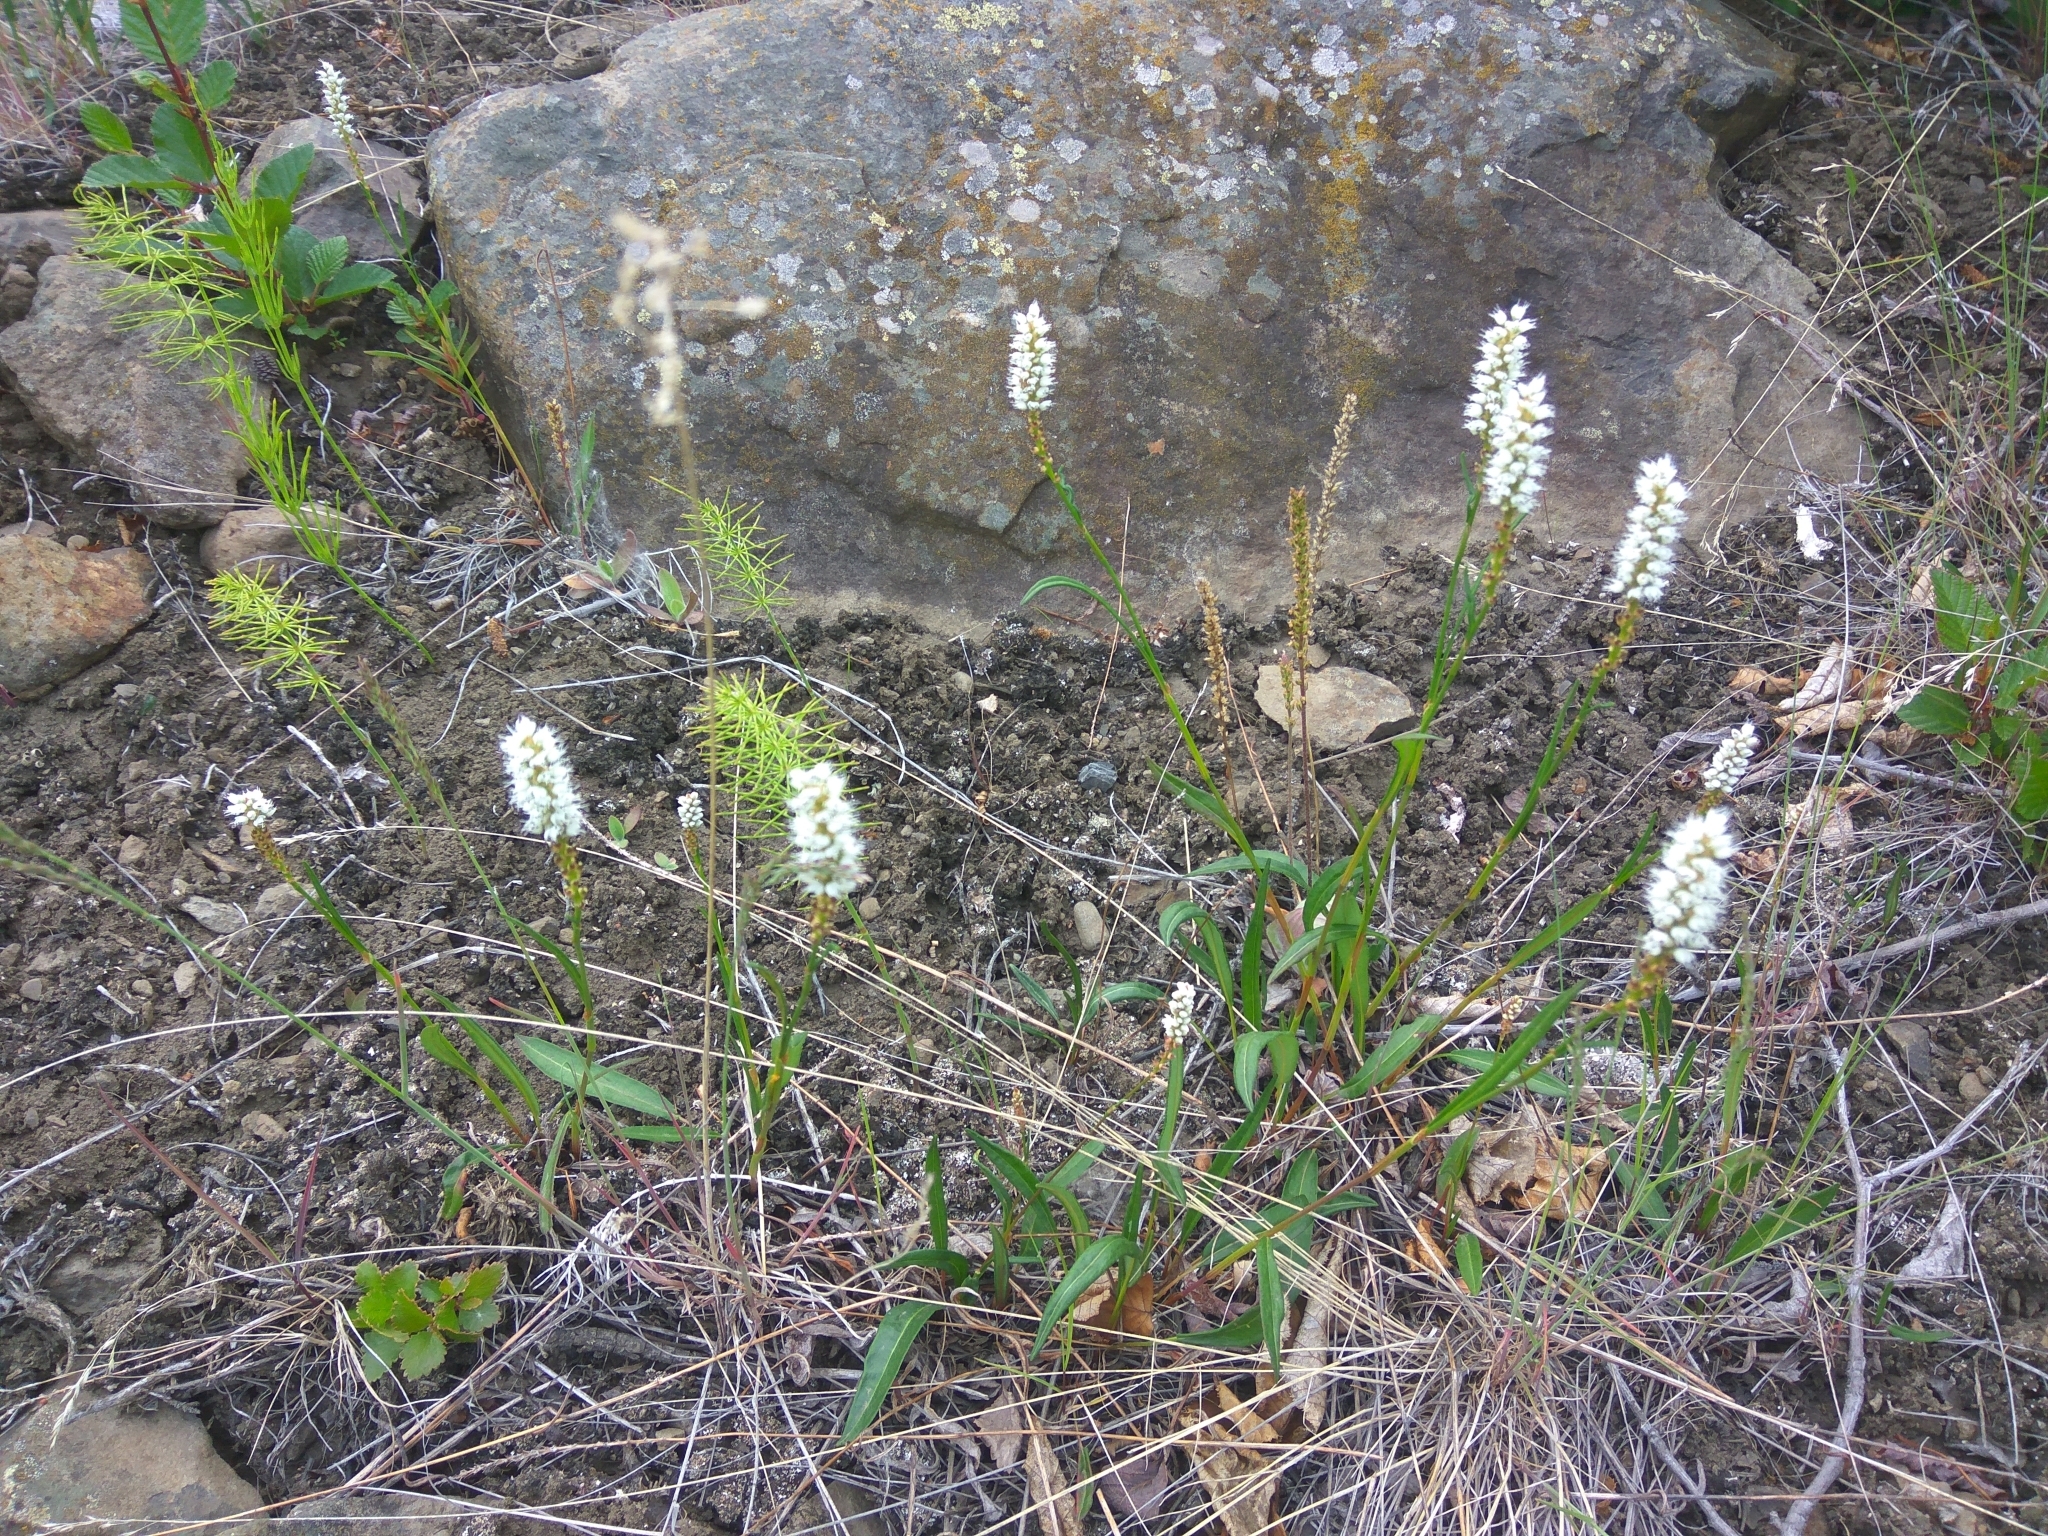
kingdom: Plantae
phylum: Tracheophyta
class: Magnoliopsida
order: Caryophyllales
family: Polygonaceae
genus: Bistorta
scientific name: Bistorta vivipara
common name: Alpine bistort
